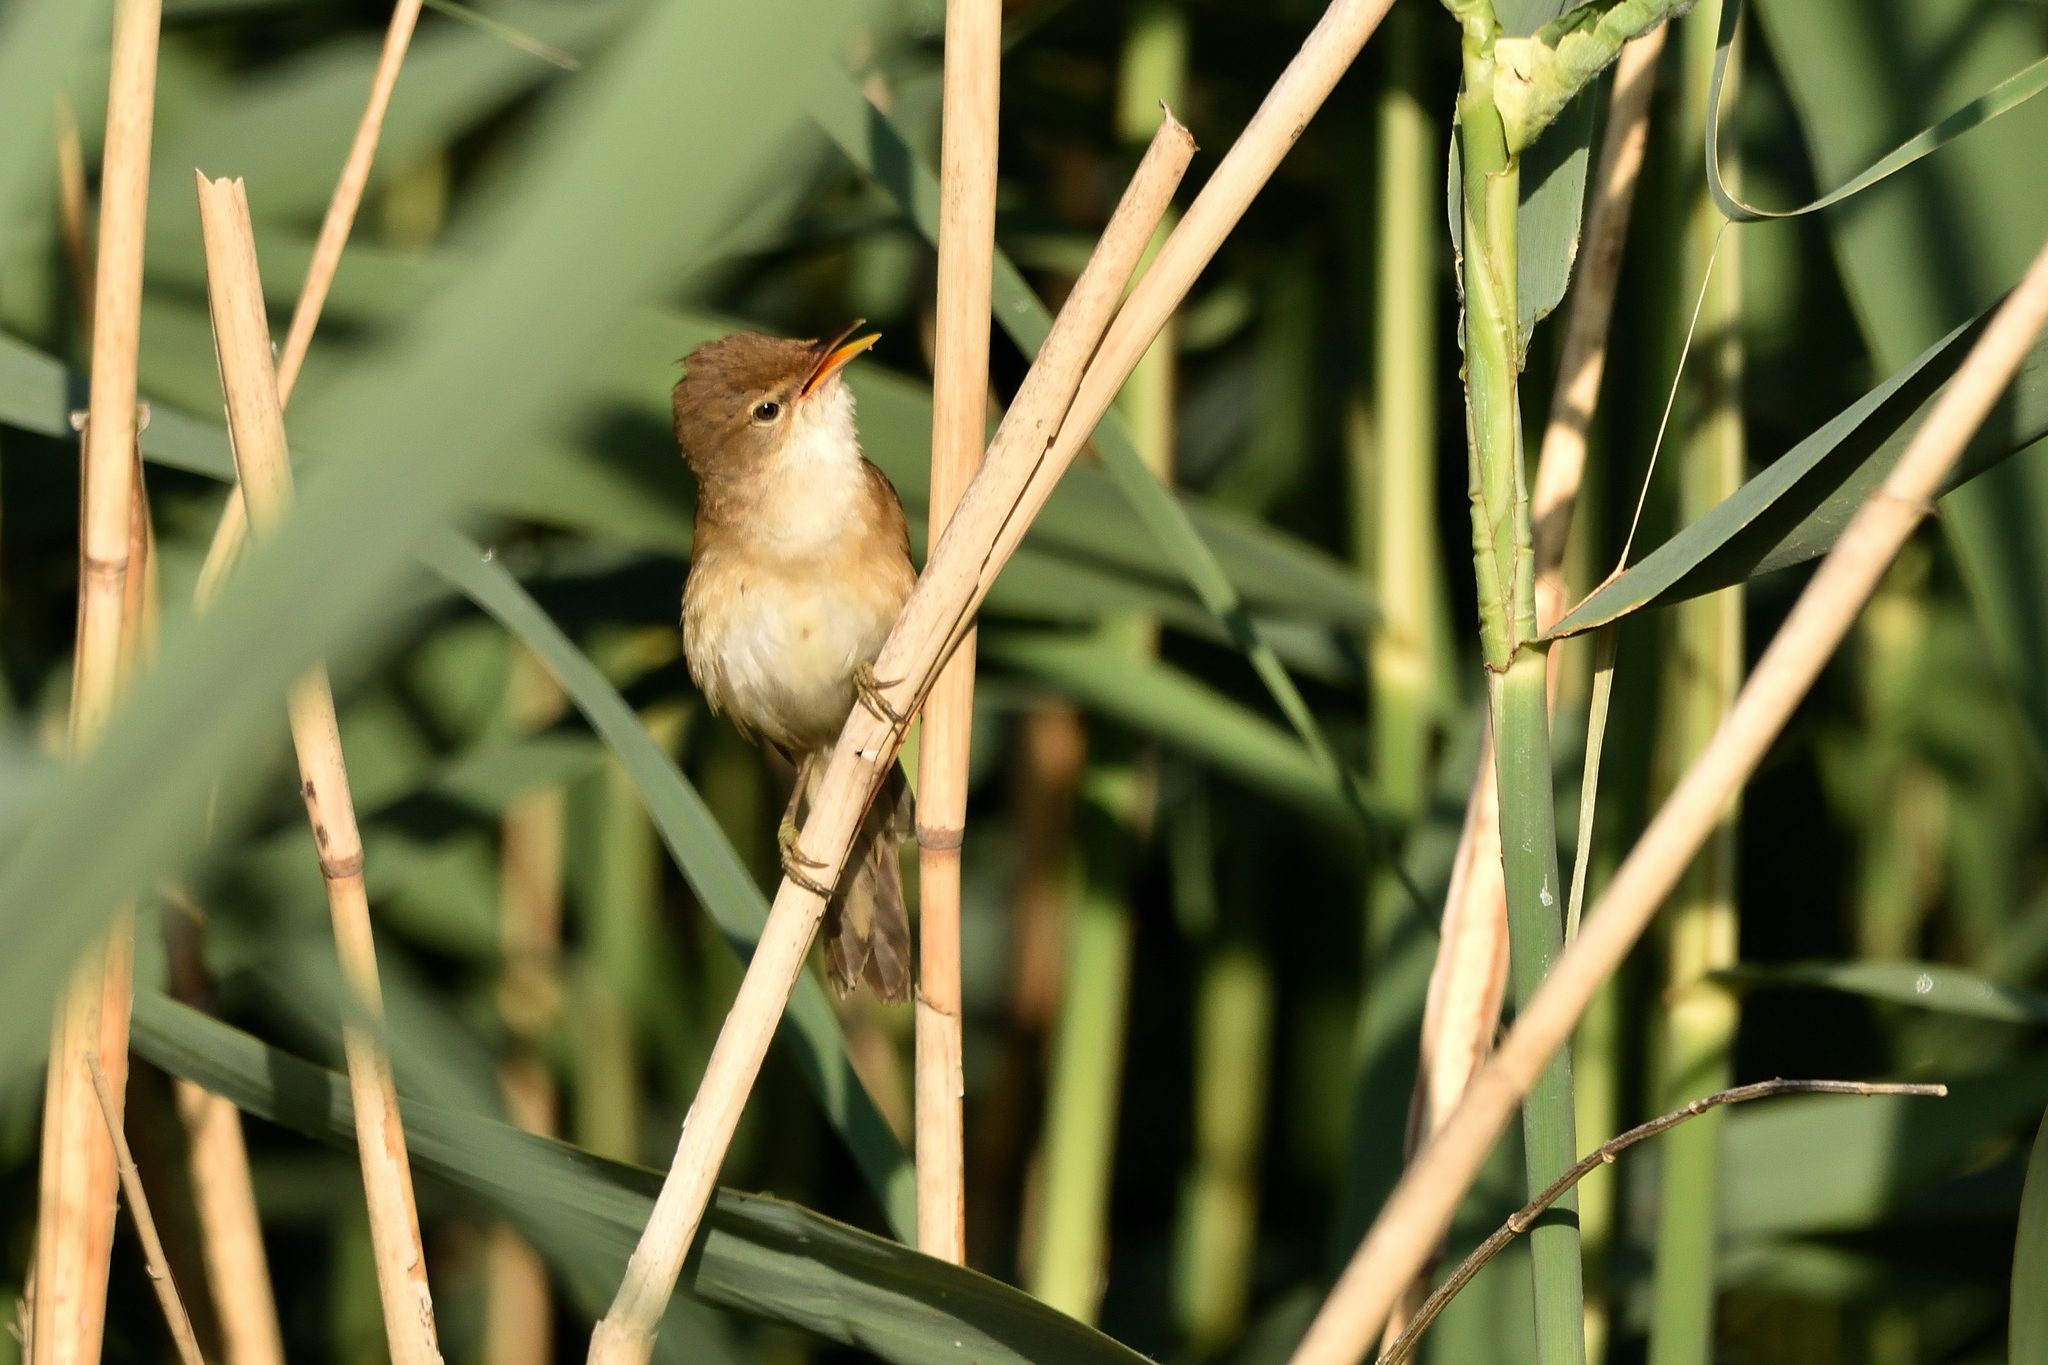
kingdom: Animalia
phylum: Chordata
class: Aves
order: Passeriformes
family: Acrocephalidae
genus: Acrocephalus
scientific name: Acrocephalus scirpaceus
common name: Eurasian reed warbler
